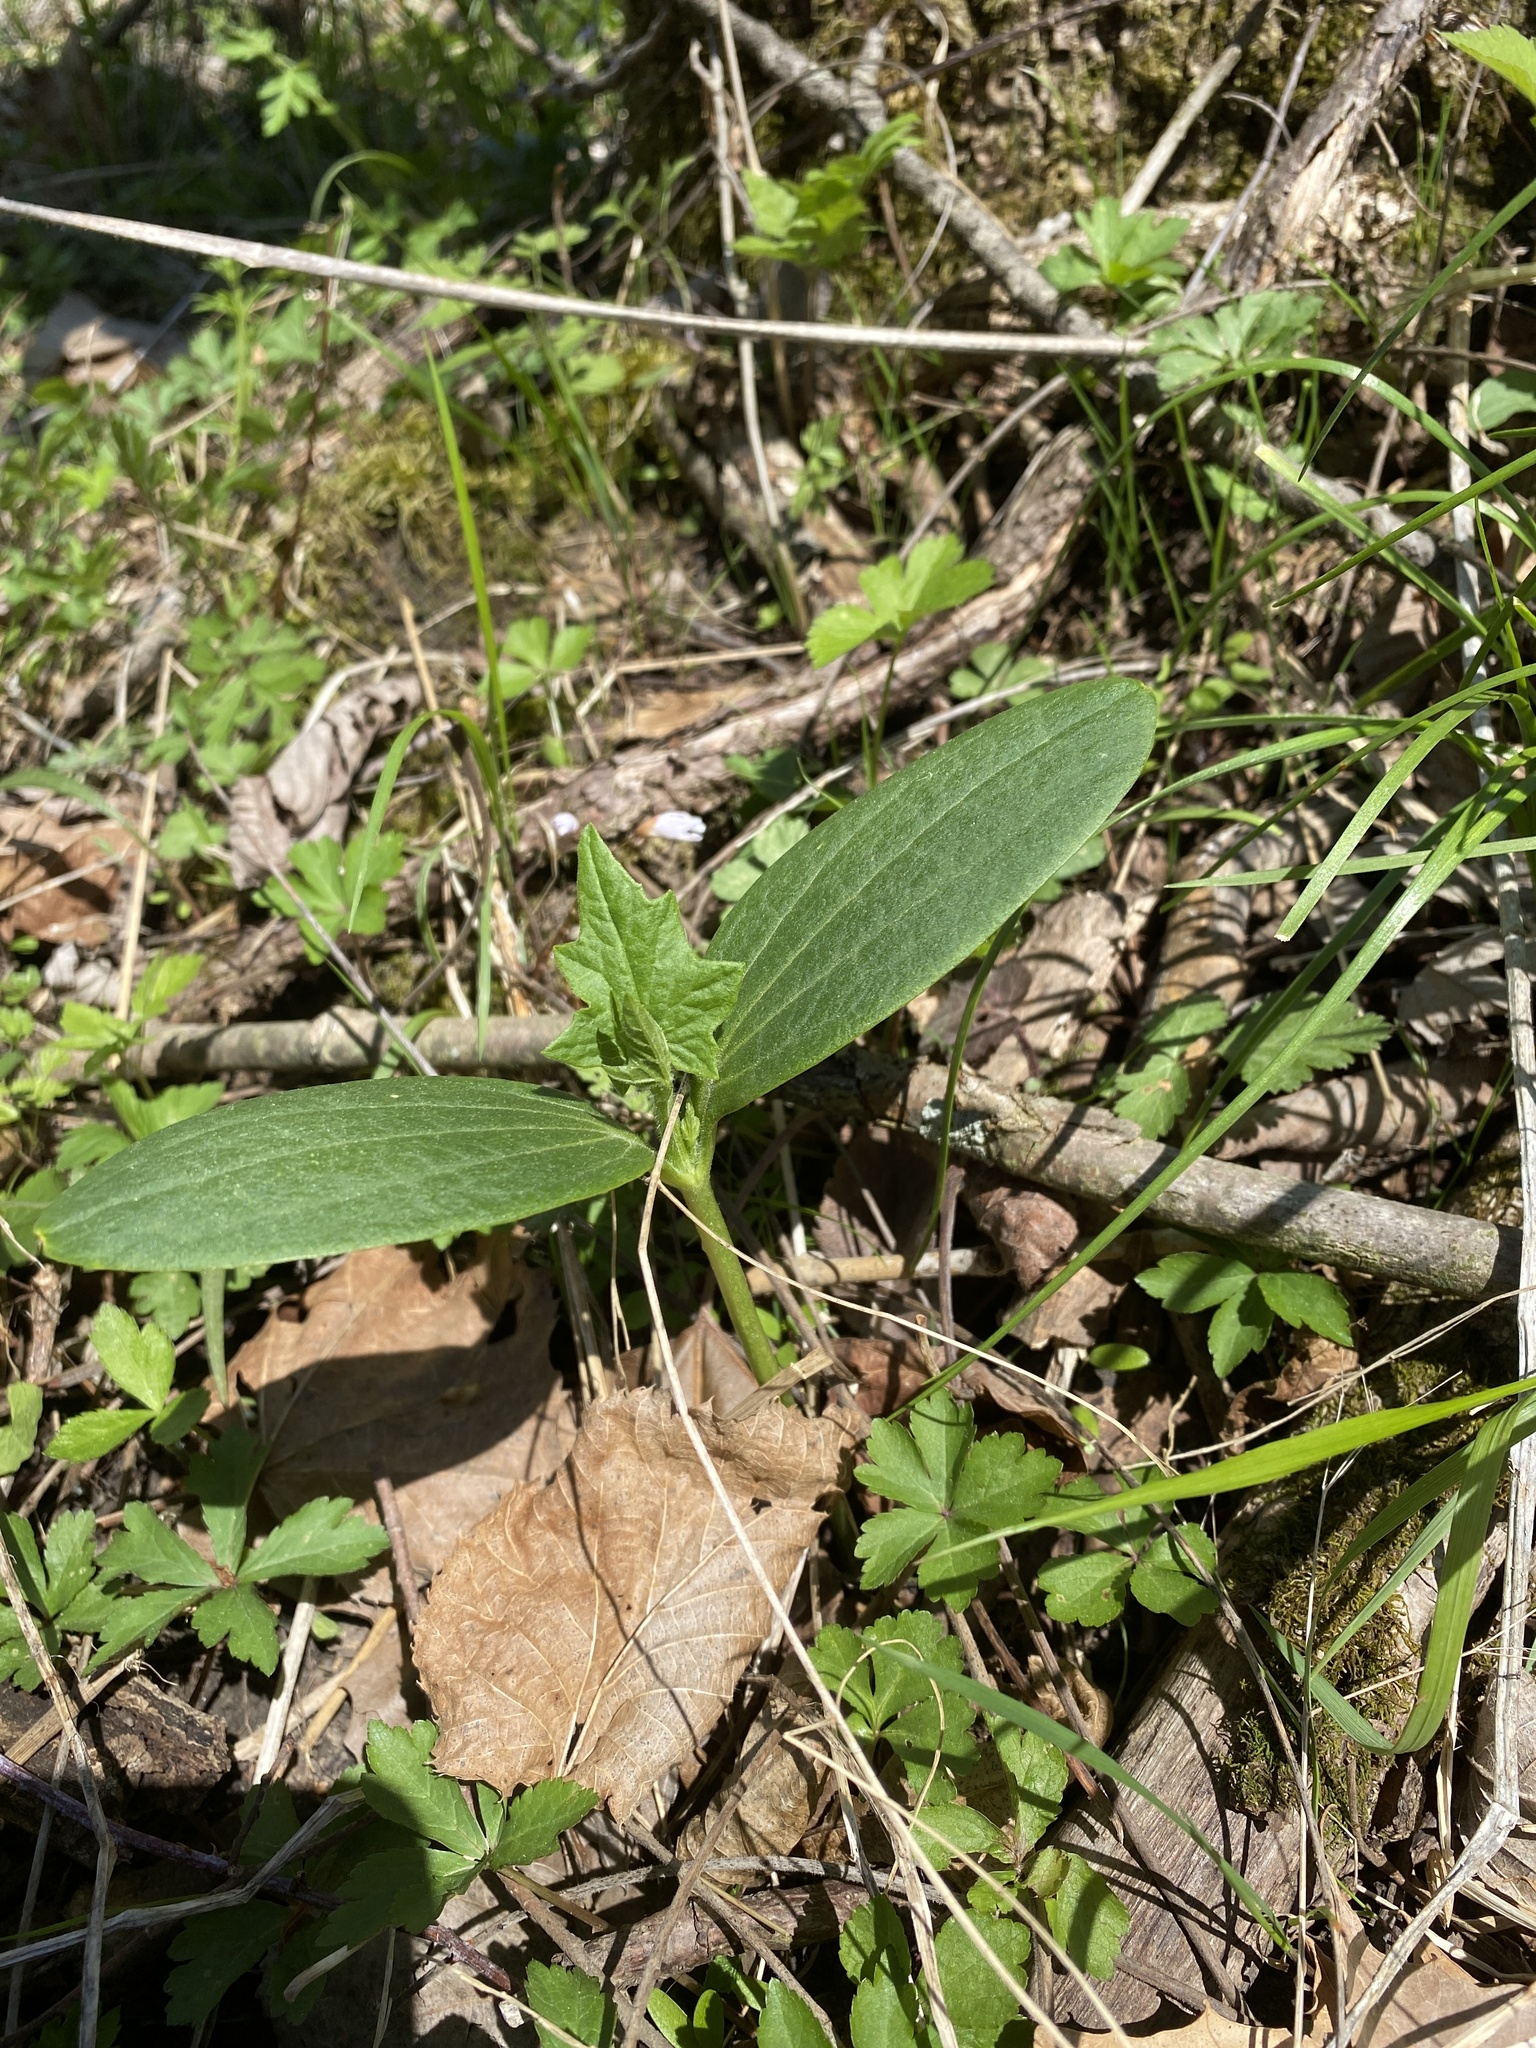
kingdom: Plantae
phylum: Tracheophyta
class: Magnoliopsida
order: Cucurbitales
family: Cucurbitaceae
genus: Echinocystis
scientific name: Echinocystis lobata
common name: Wild cucumber
